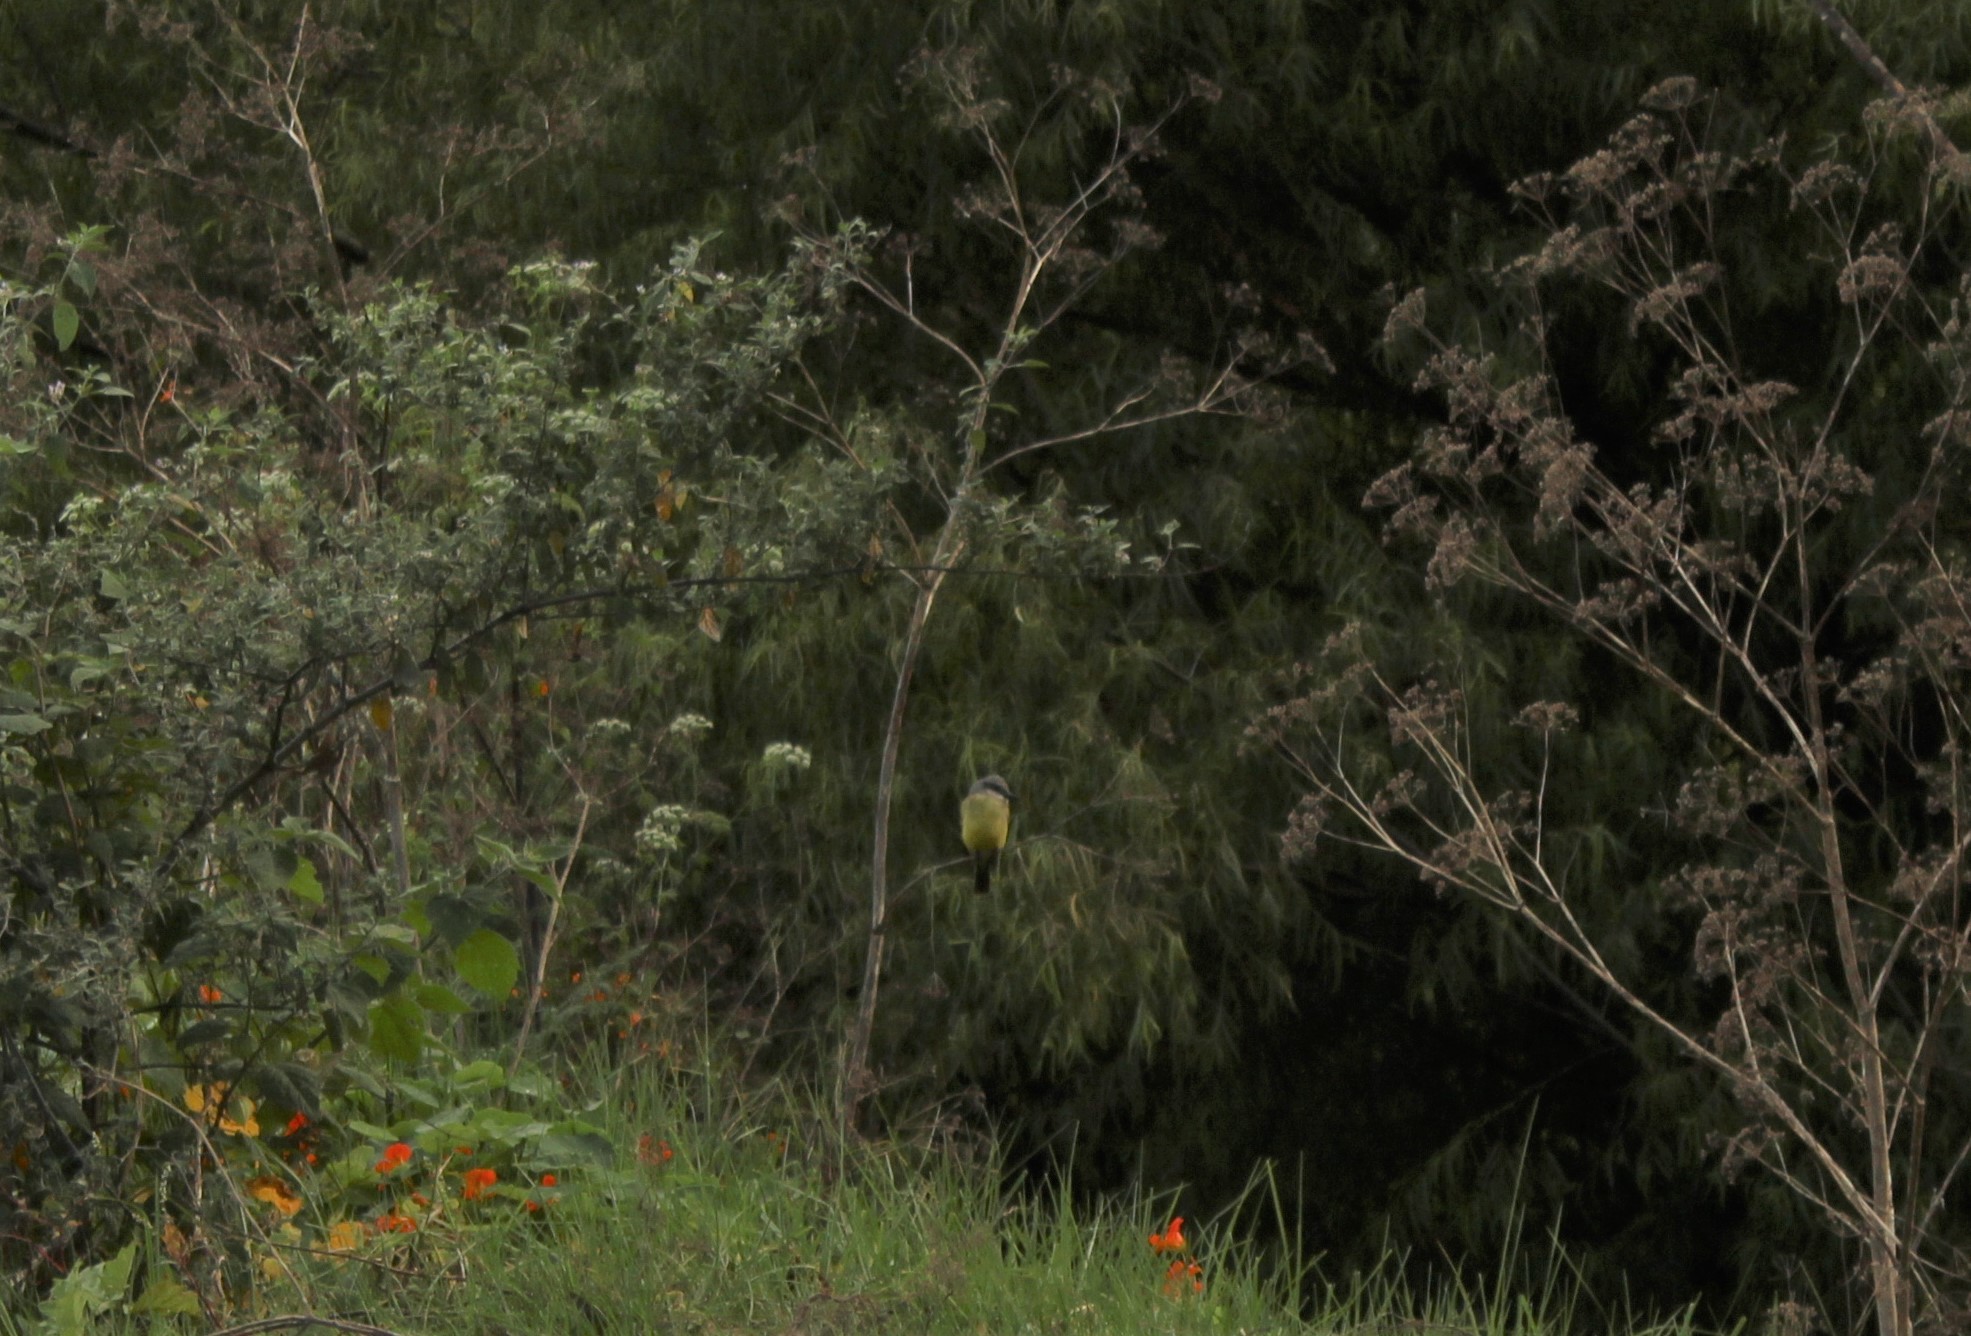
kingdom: Animalia
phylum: Chordata
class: Aves
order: Passeriformes
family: Tyrannidae
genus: Tyrannus
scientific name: Tyrannus melancholicus
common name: Tropical kingbird
